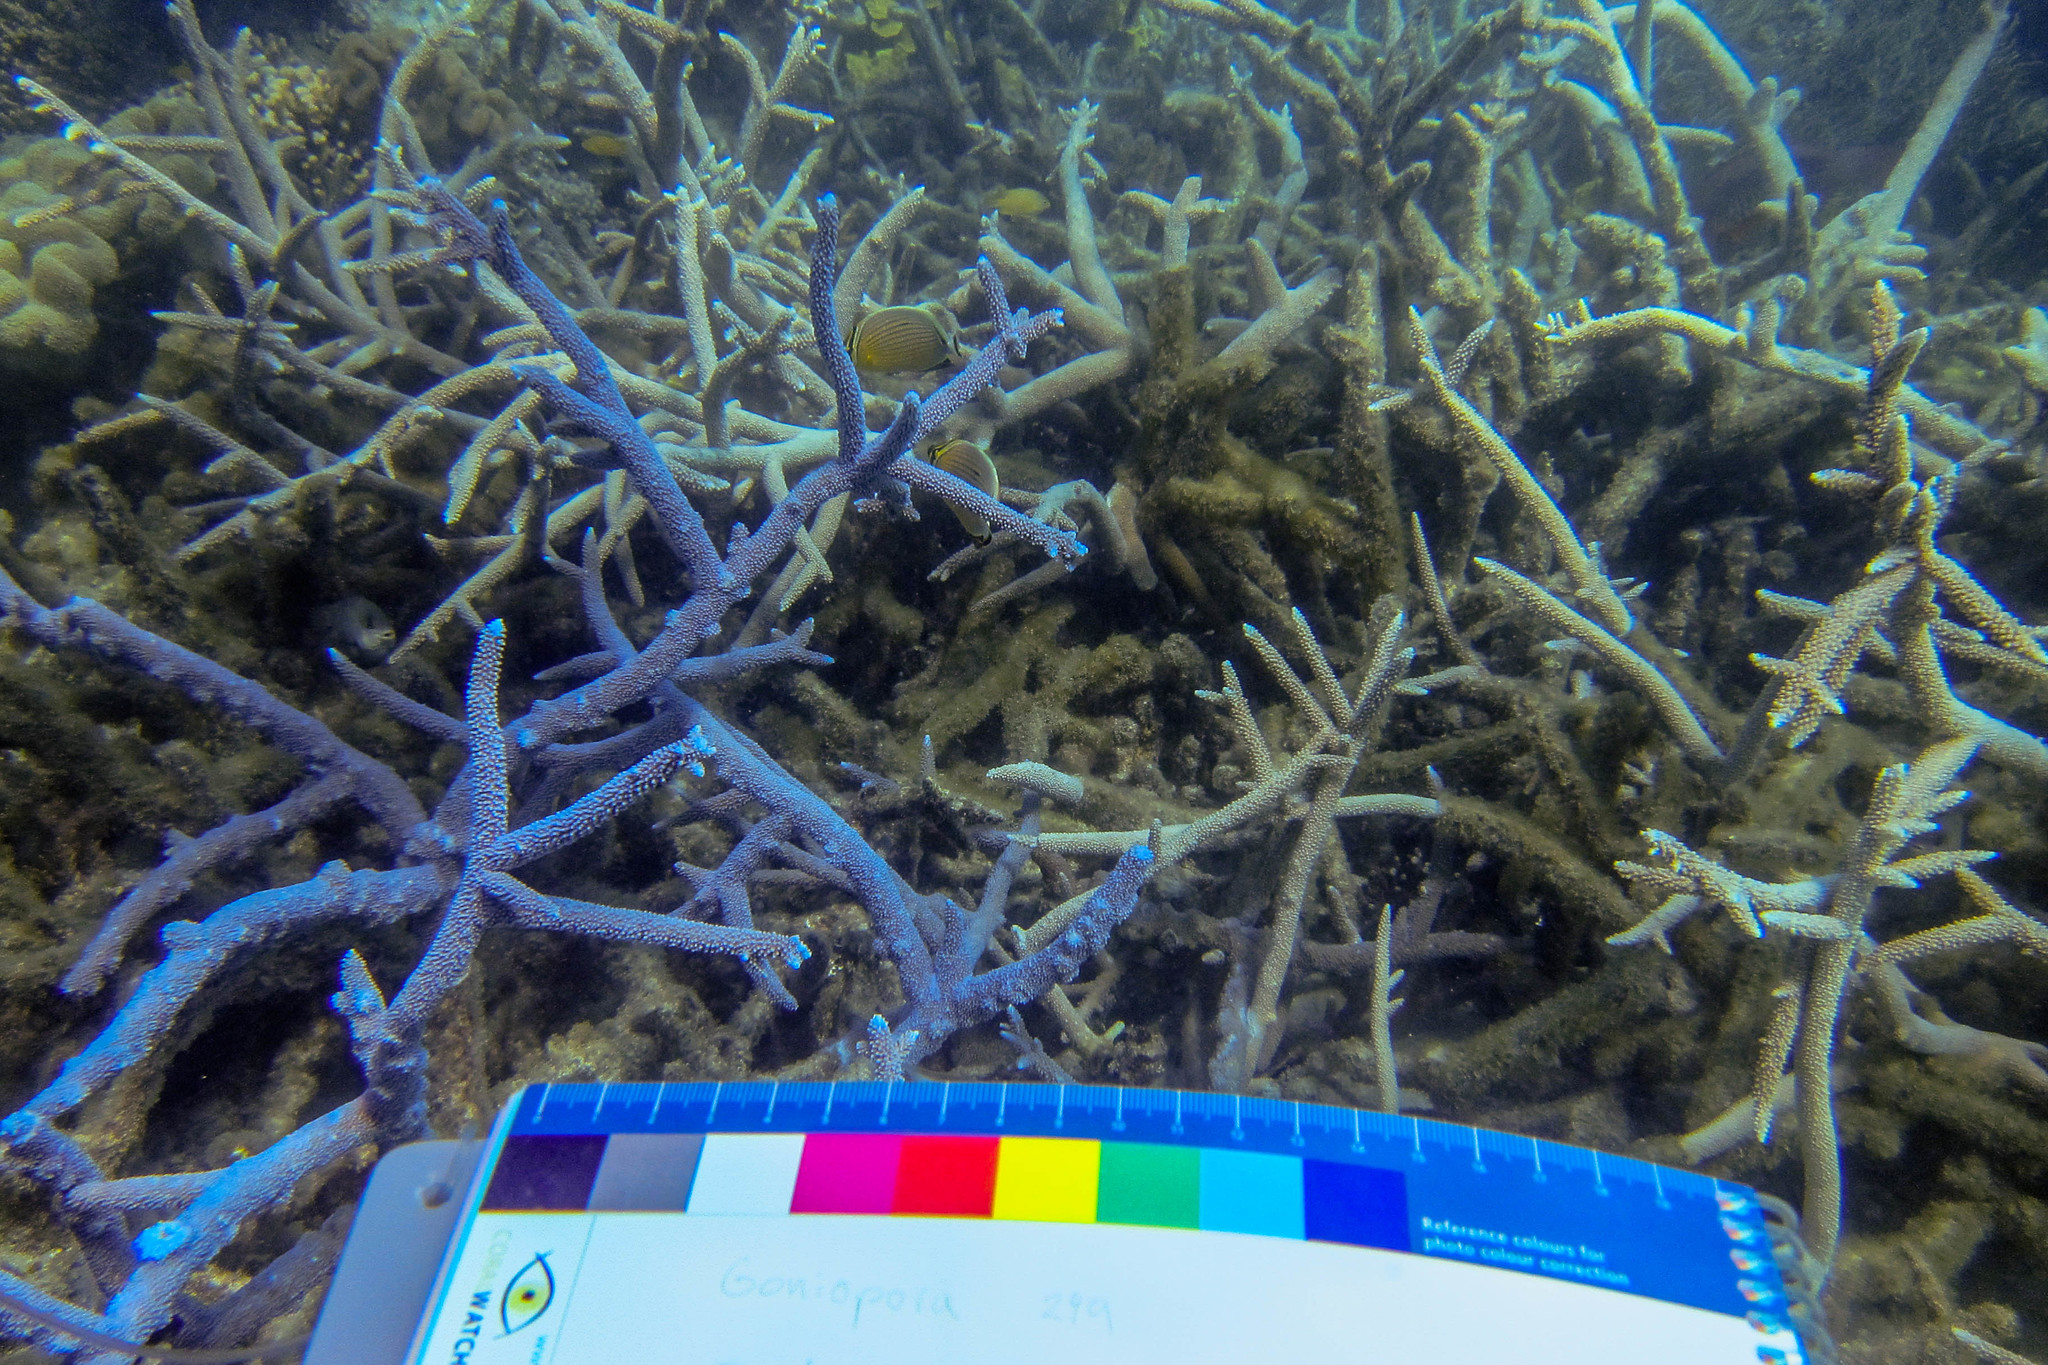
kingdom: Animalia
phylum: Cnidaria
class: Anthozoa
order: Scleractinia
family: Acroporidae
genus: Acropora
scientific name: Acropora muricata
